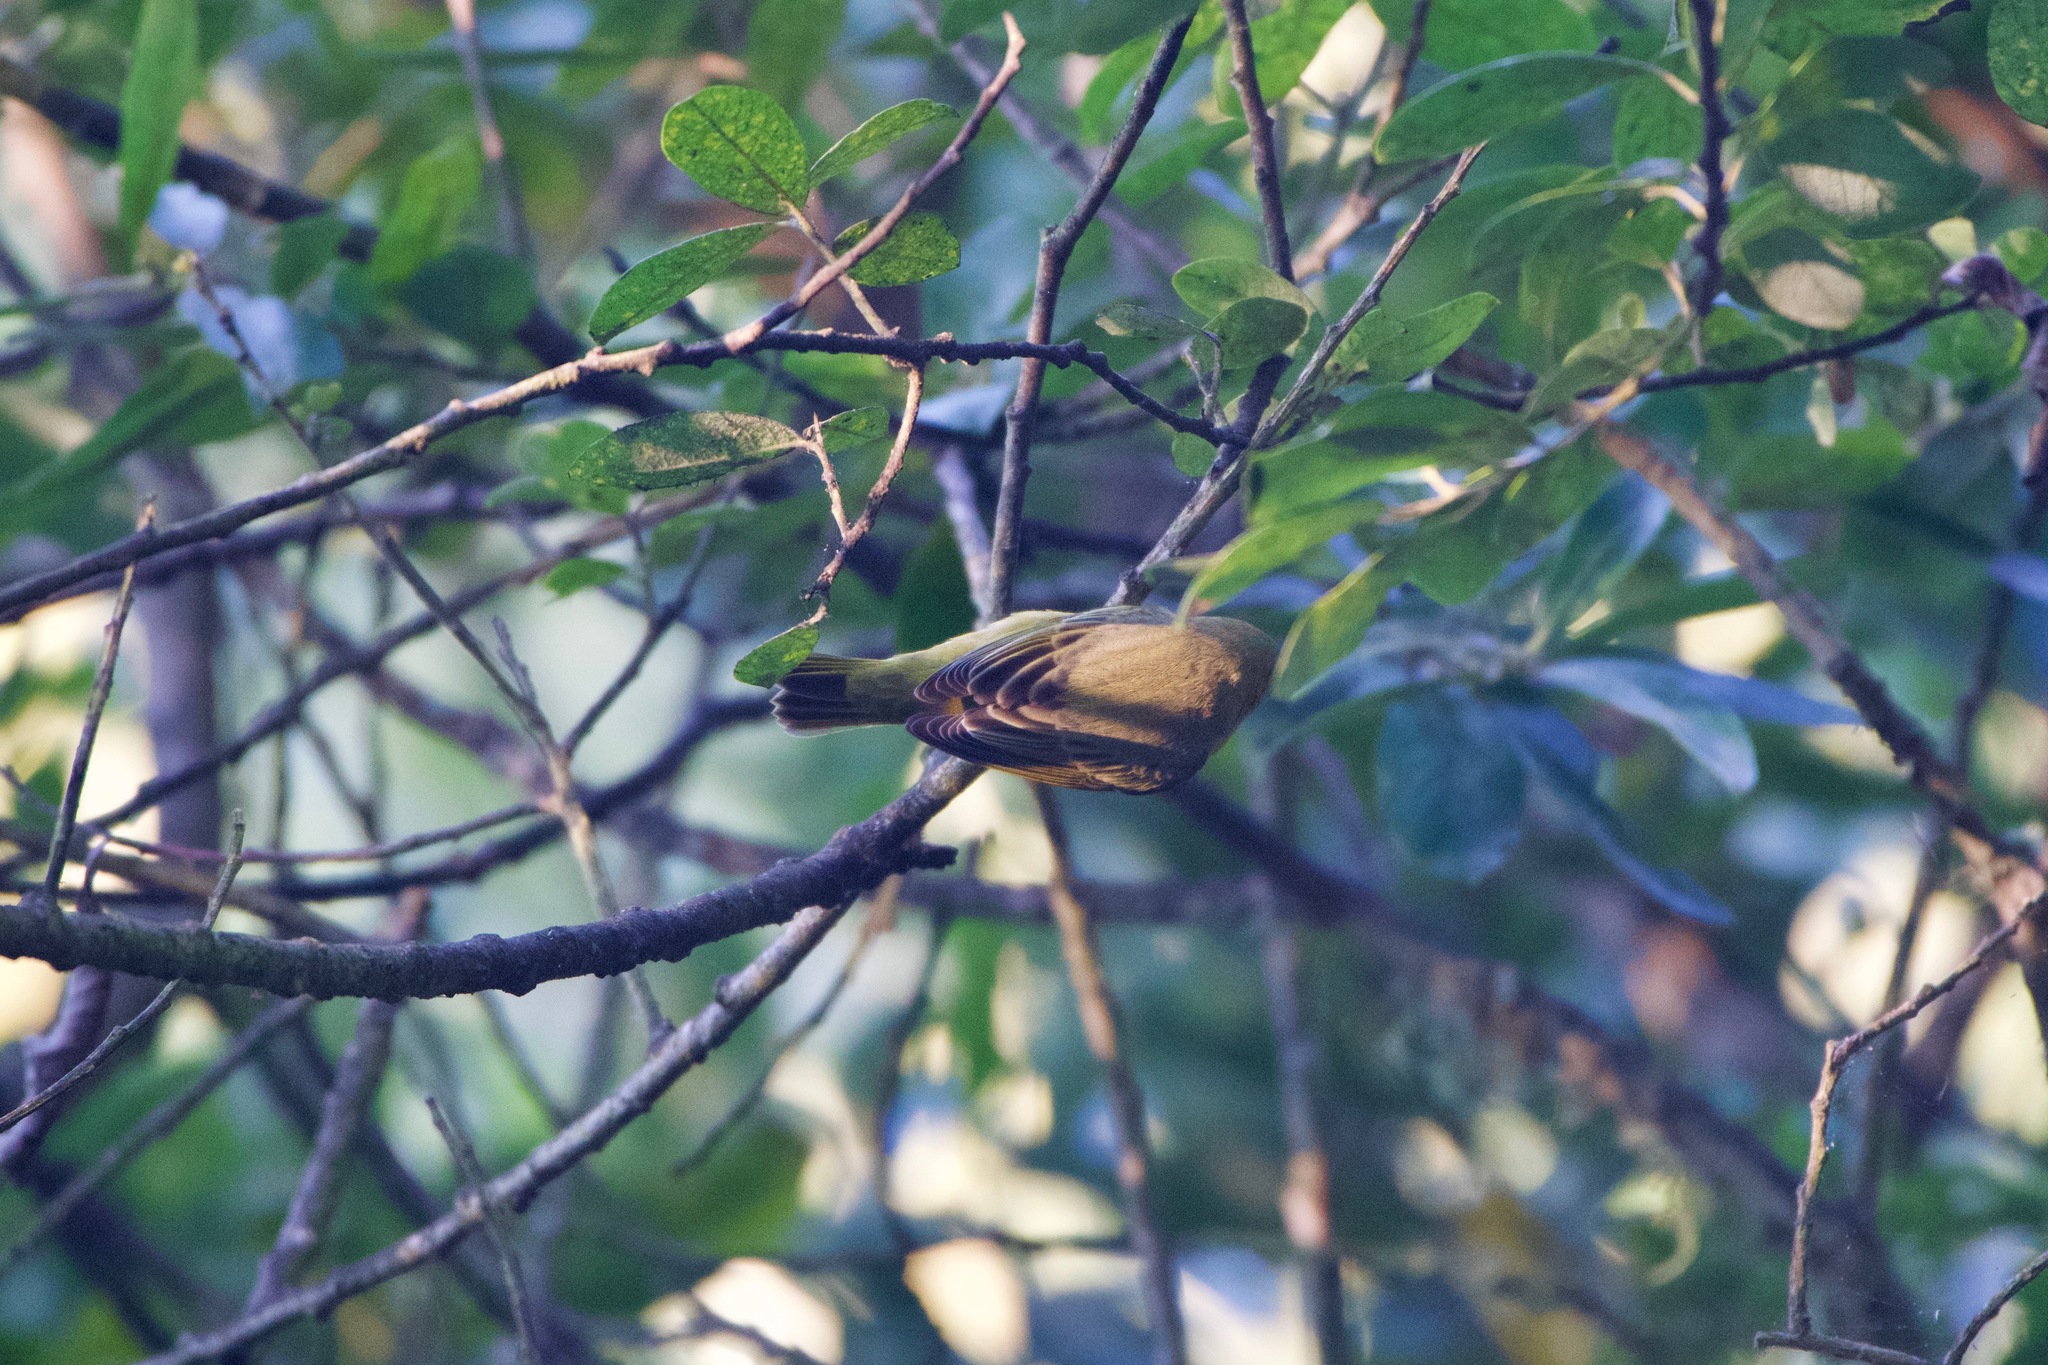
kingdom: Animalia
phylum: Chordata
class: Aves
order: Passeriformes
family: Parulidae
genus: Setophaga
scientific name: Setophaga petechia
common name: Yellow warbler
